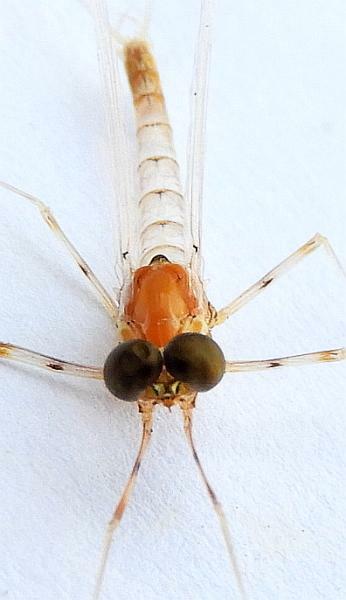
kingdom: Animalia
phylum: Arthropoda
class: Insecta
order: Ephemeroptera
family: Heptageniidae
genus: Epeorus
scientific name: Epeorus frisoni
